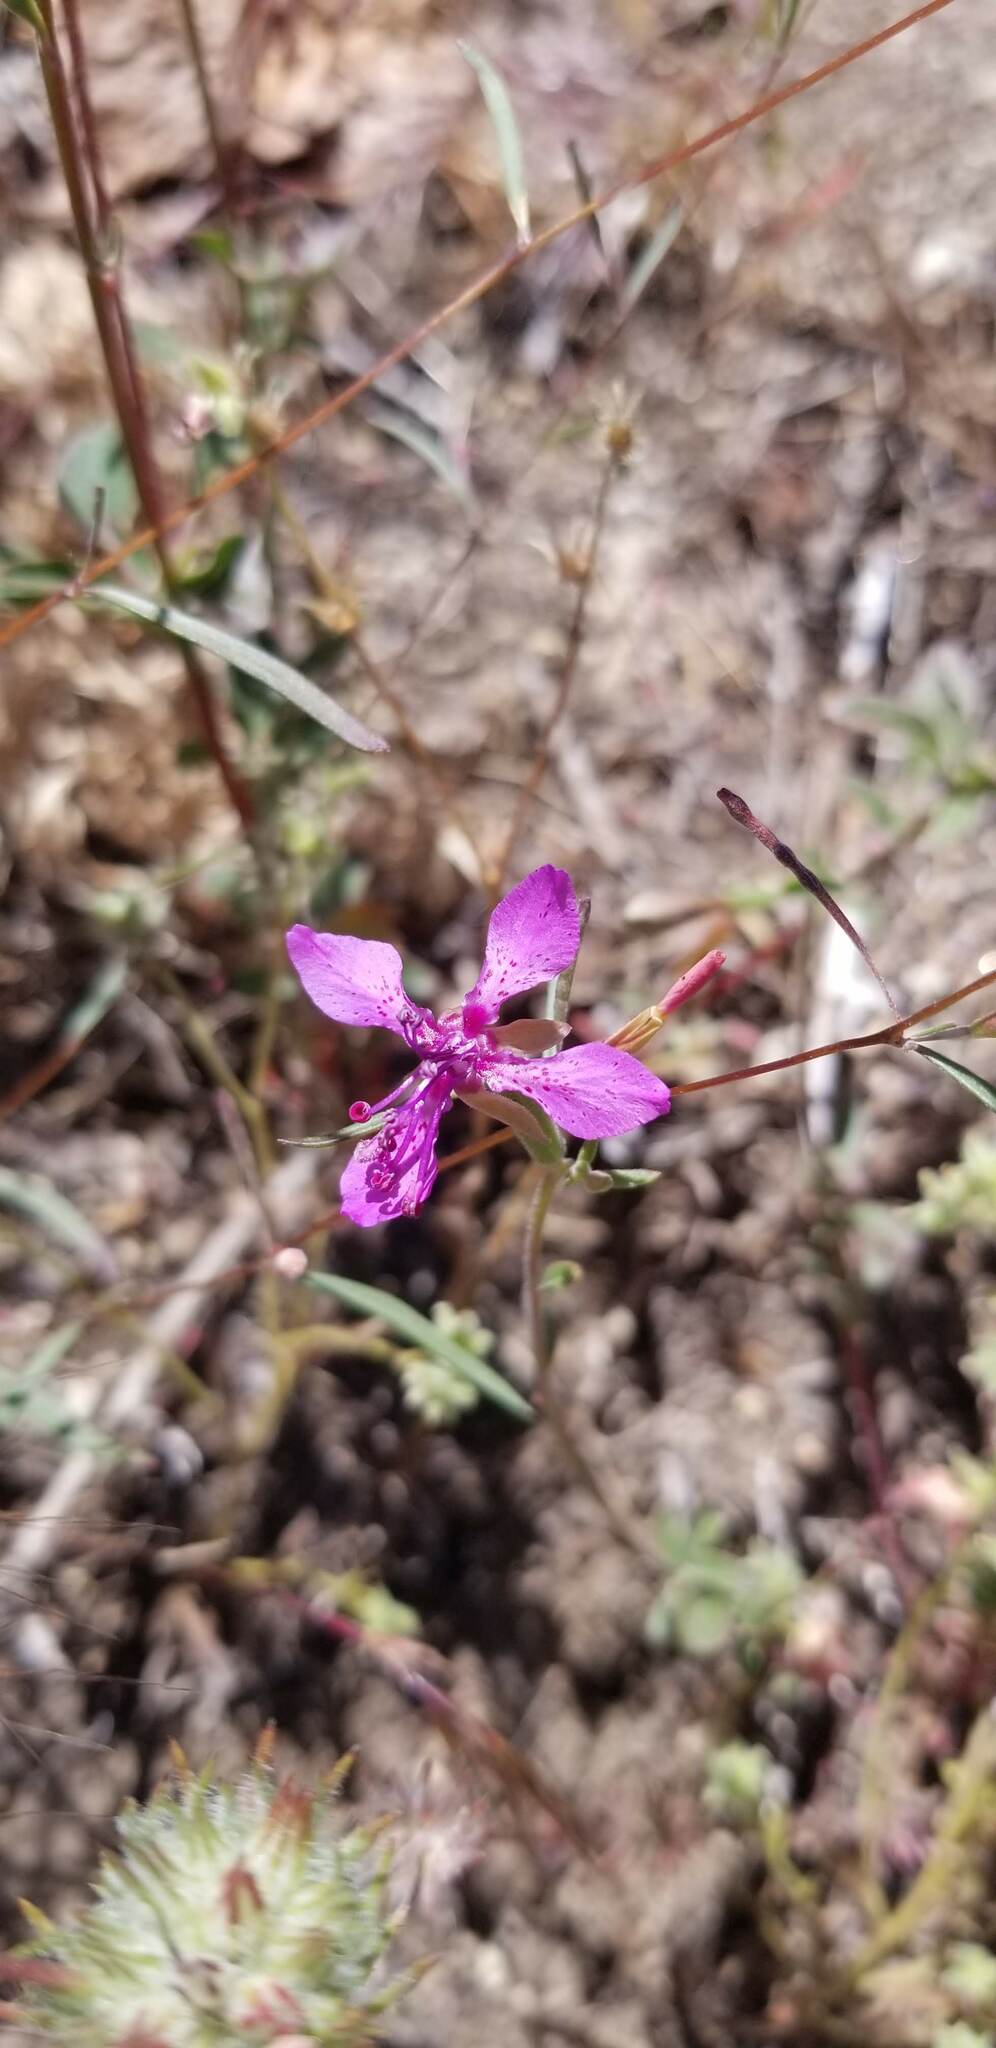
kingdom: Plantae
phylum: Tracheophyta
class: Magnoliopsida
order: Myrtales
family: Onagraceae
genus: Clarkia
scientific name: Clarkia rhomboidea
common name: Broadleaf clarkia
